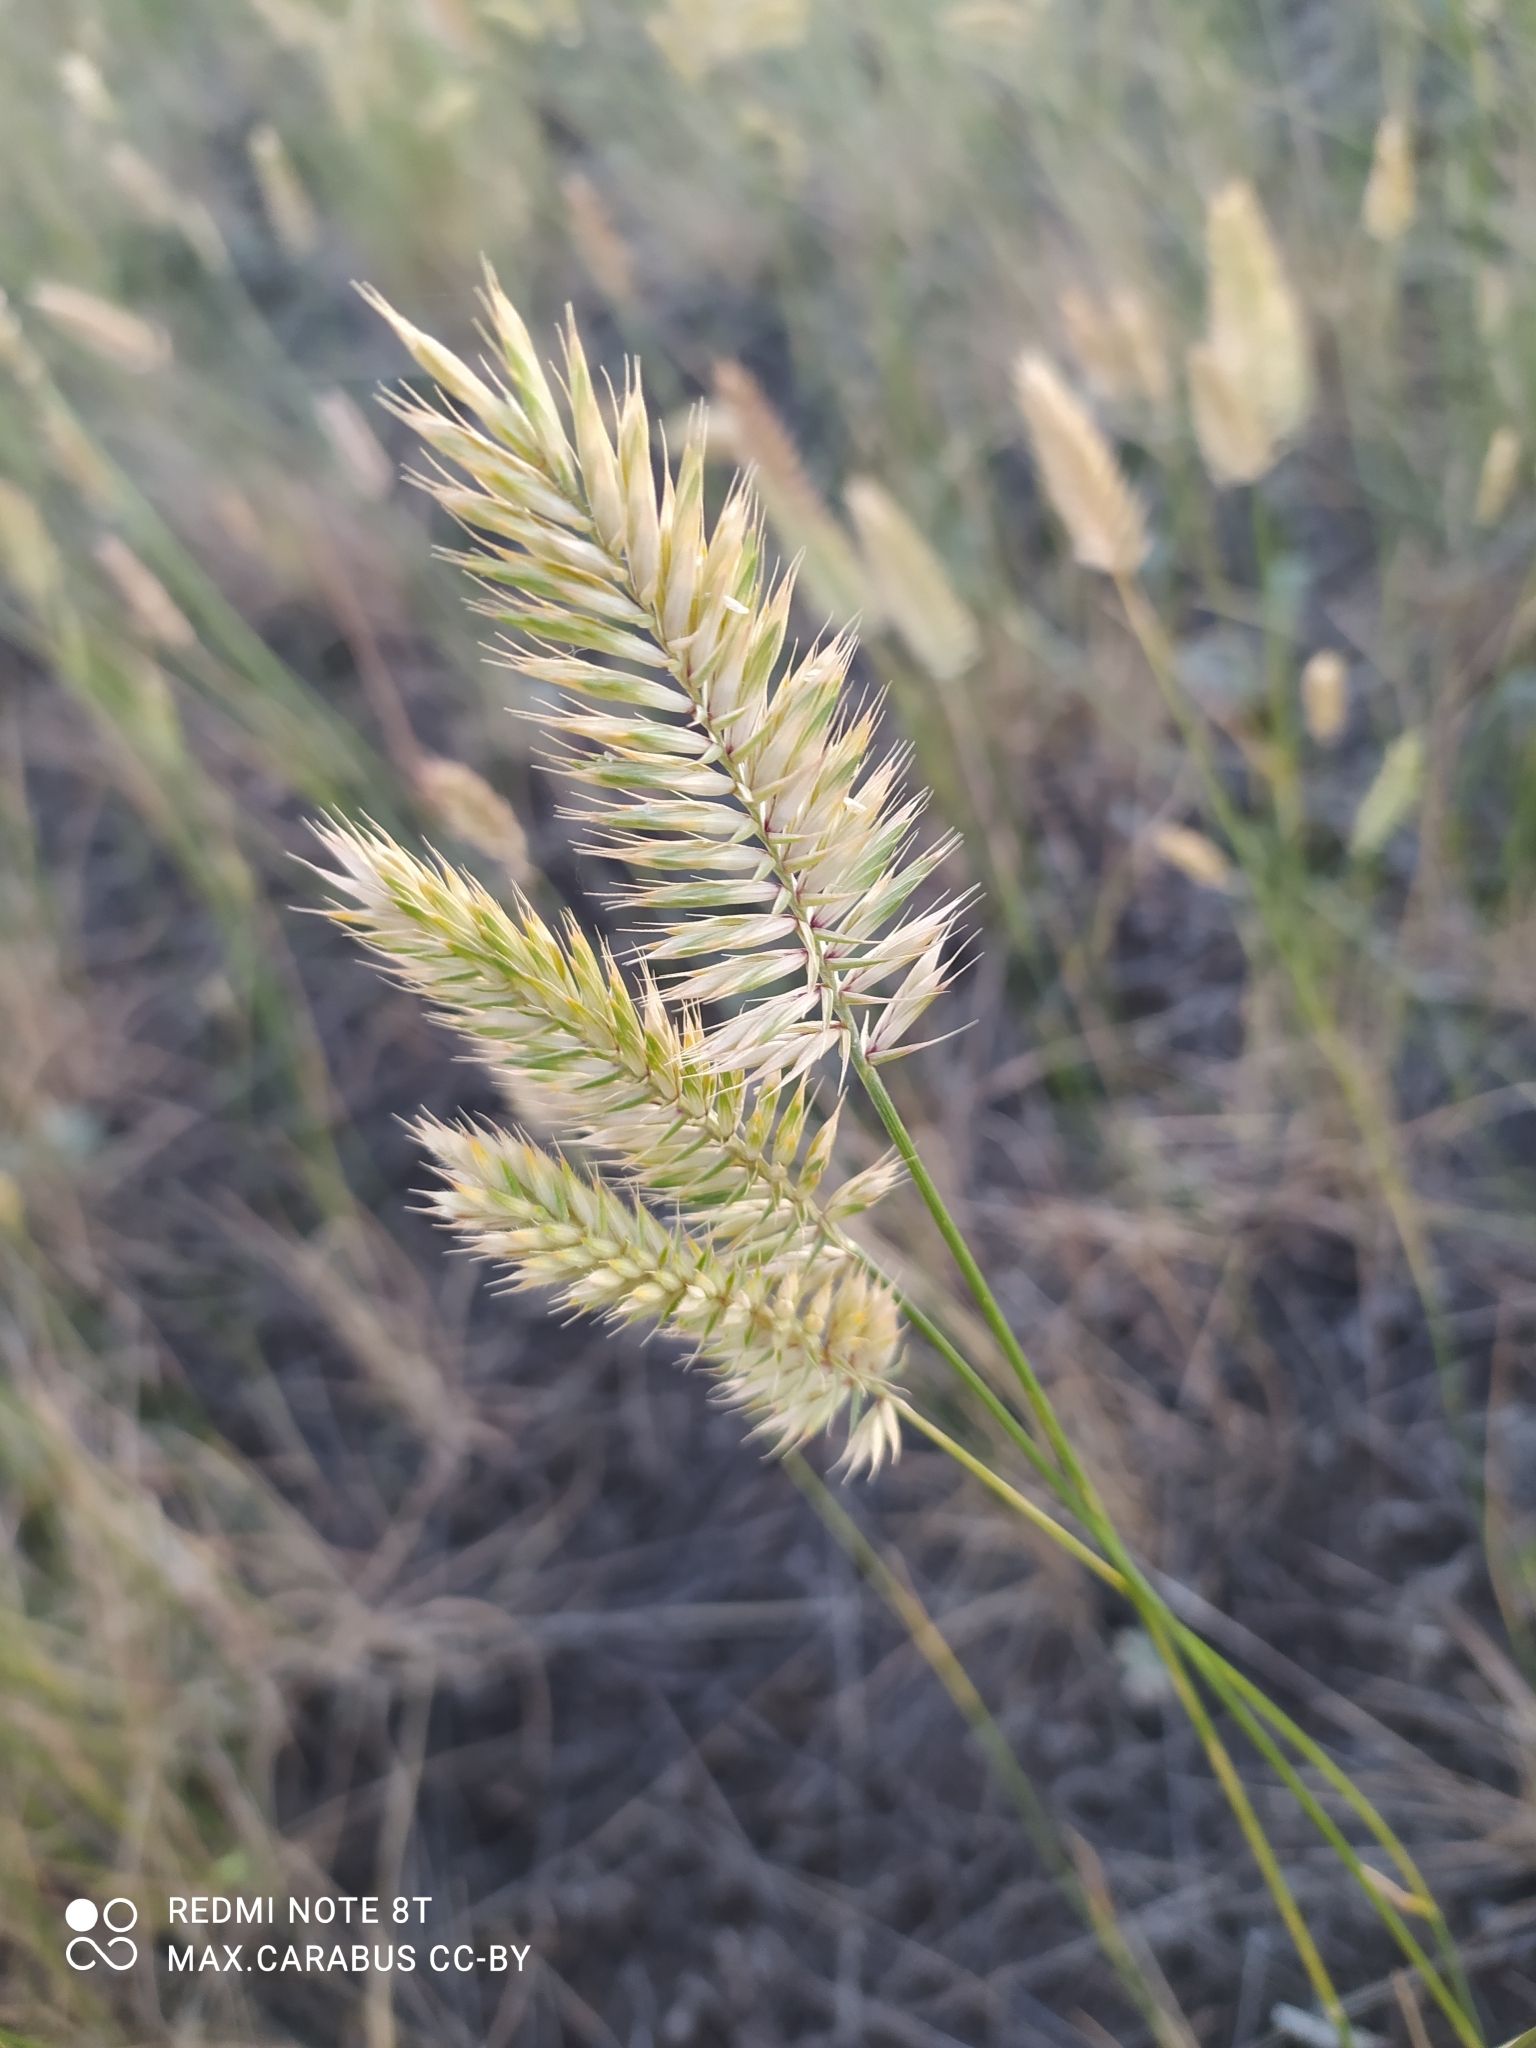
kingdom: Plantae
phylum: Tracheophyta
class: Liliopsida
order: Poales
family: Poaceae
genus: Agropyron
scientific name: Agropyron cristatum
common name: Crested wheatgrass
